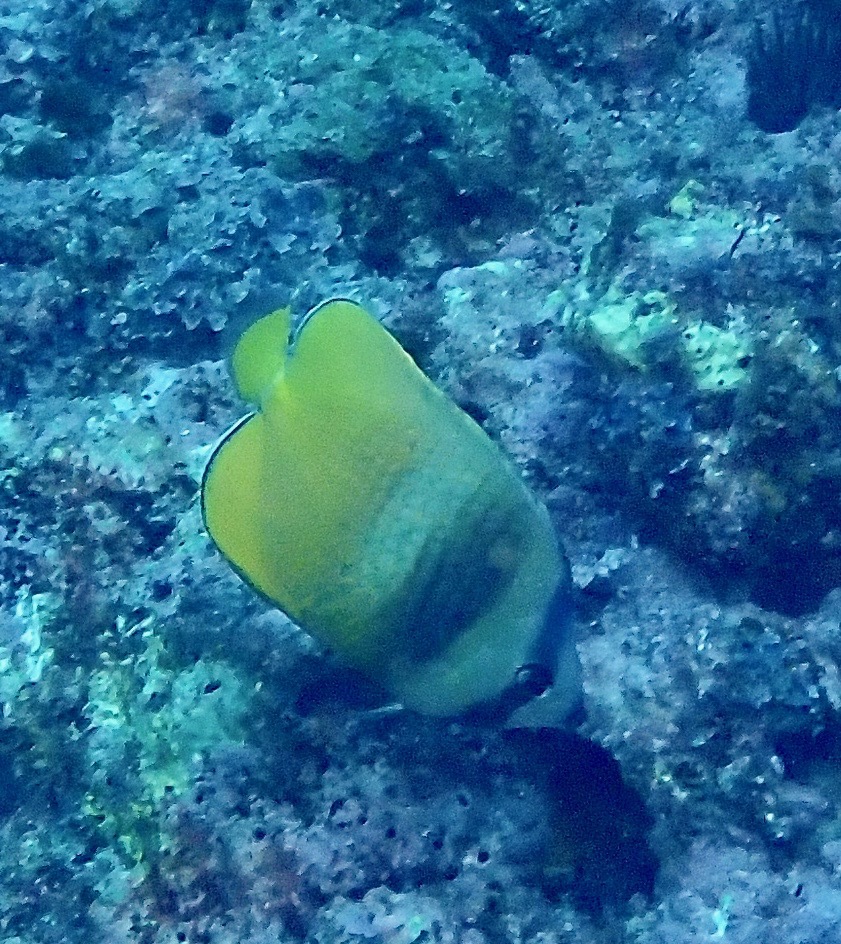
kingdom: Animalia
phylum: Chordata
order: Perciformes
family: Chaetodontidae
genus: Chaetodon
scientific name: Chaetodon kleinii
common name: Klein's butterflyfish
